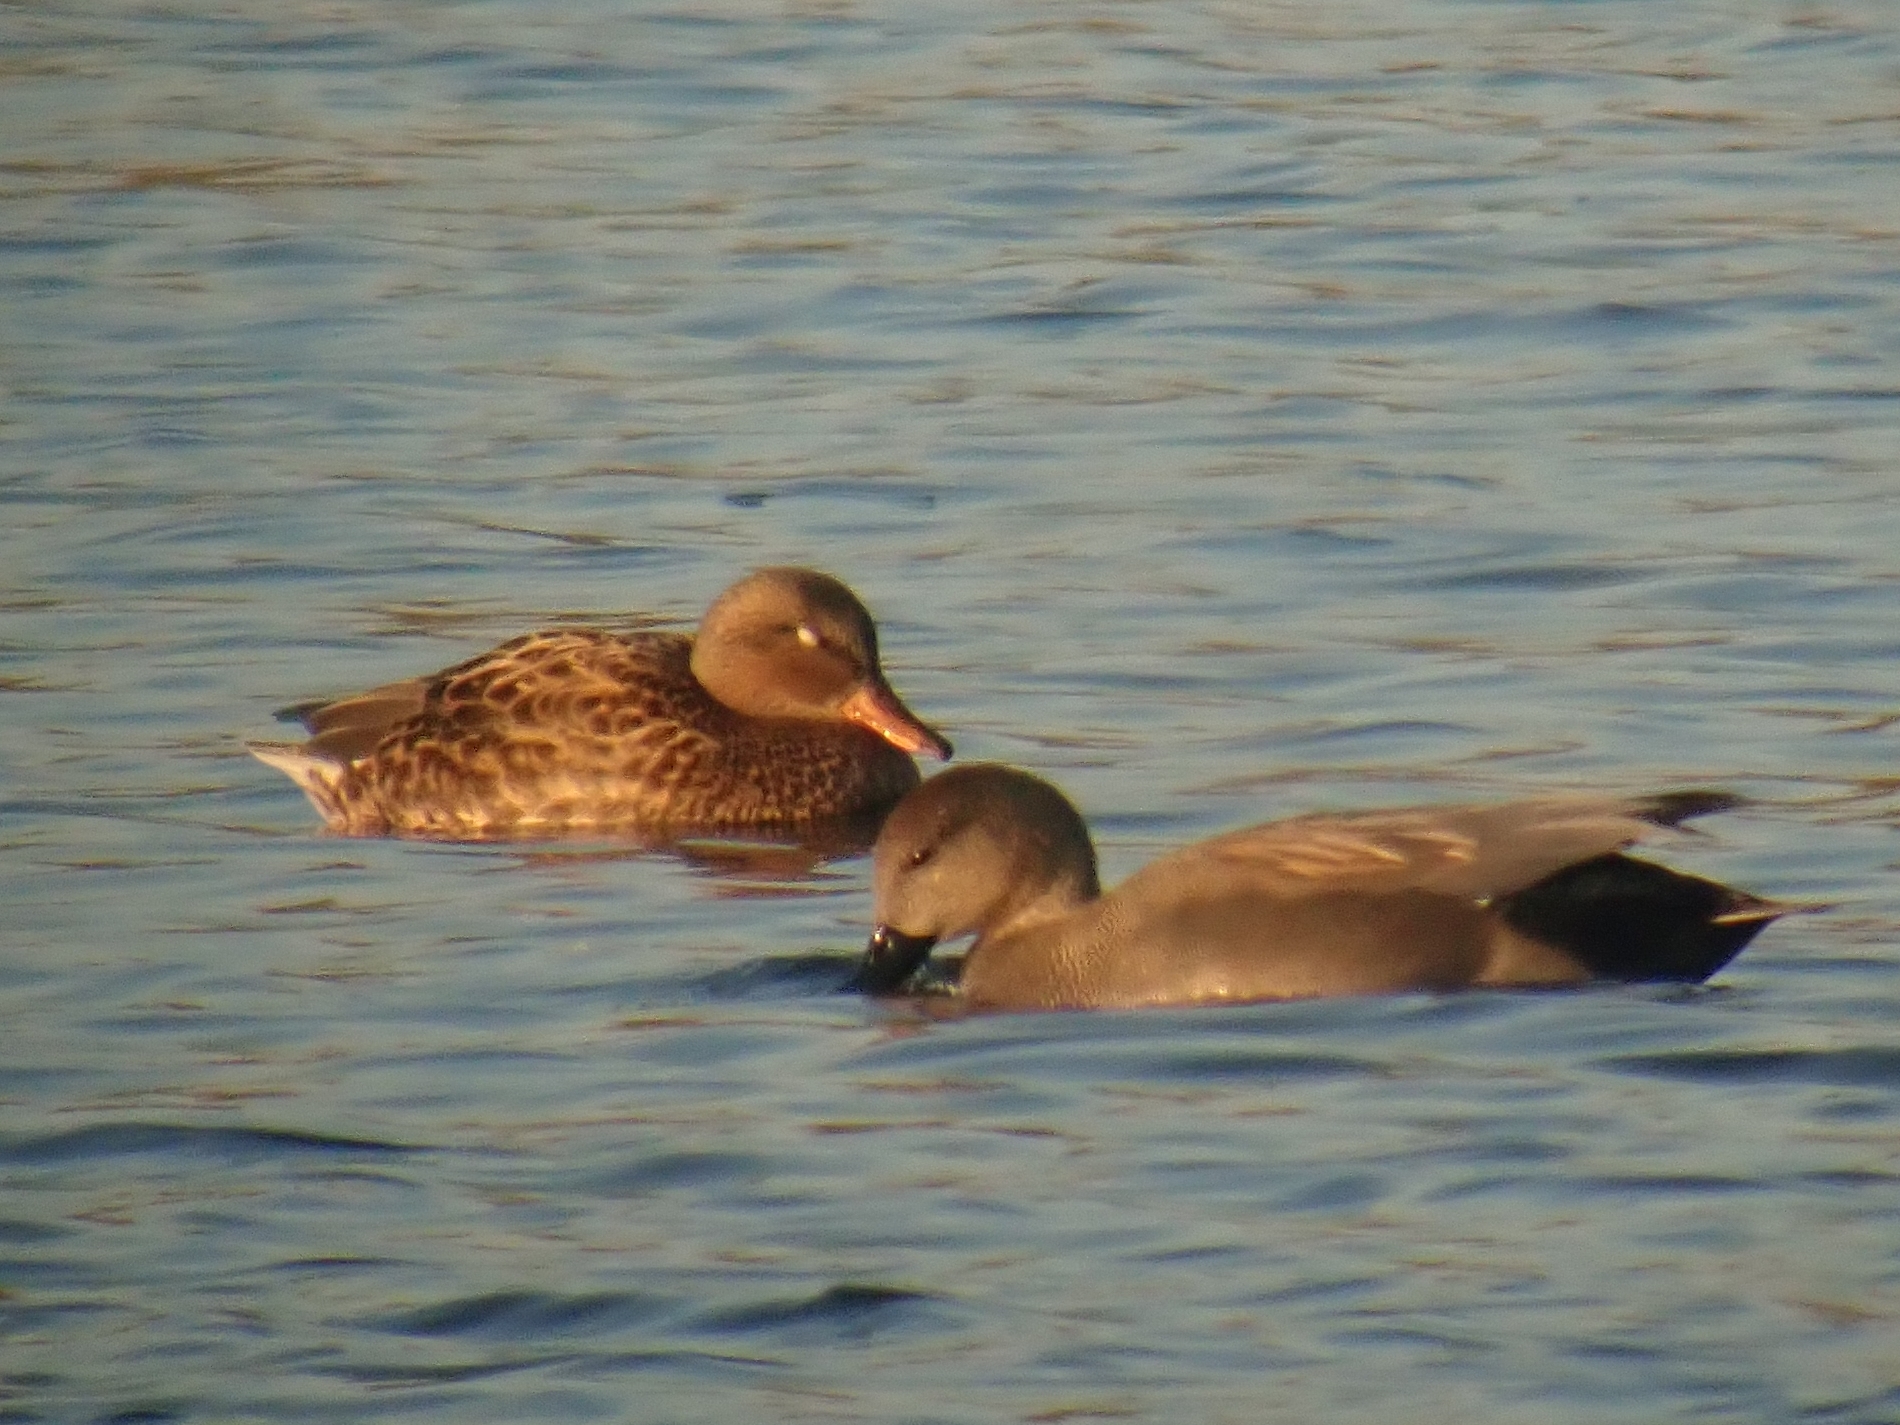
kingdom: Animalia
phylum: Chordata
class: Aves
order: Anseriformes
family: Anatidae
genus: Mareca
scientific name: Mareca strepera
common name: Gadwall
